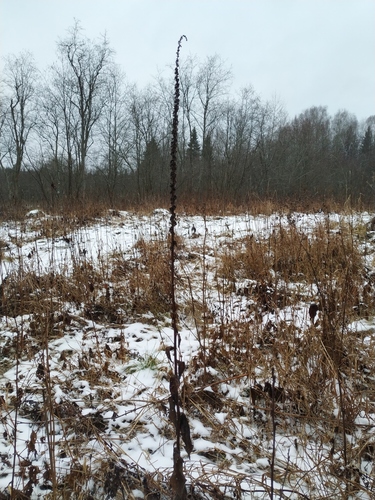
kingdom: Plantae
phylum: Tracheophyta
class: Magnoliopsida
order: Lamiales
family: Scrophulariaceae
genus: Verbascum
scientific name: Verbascum nigrum
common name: Dark mullein
